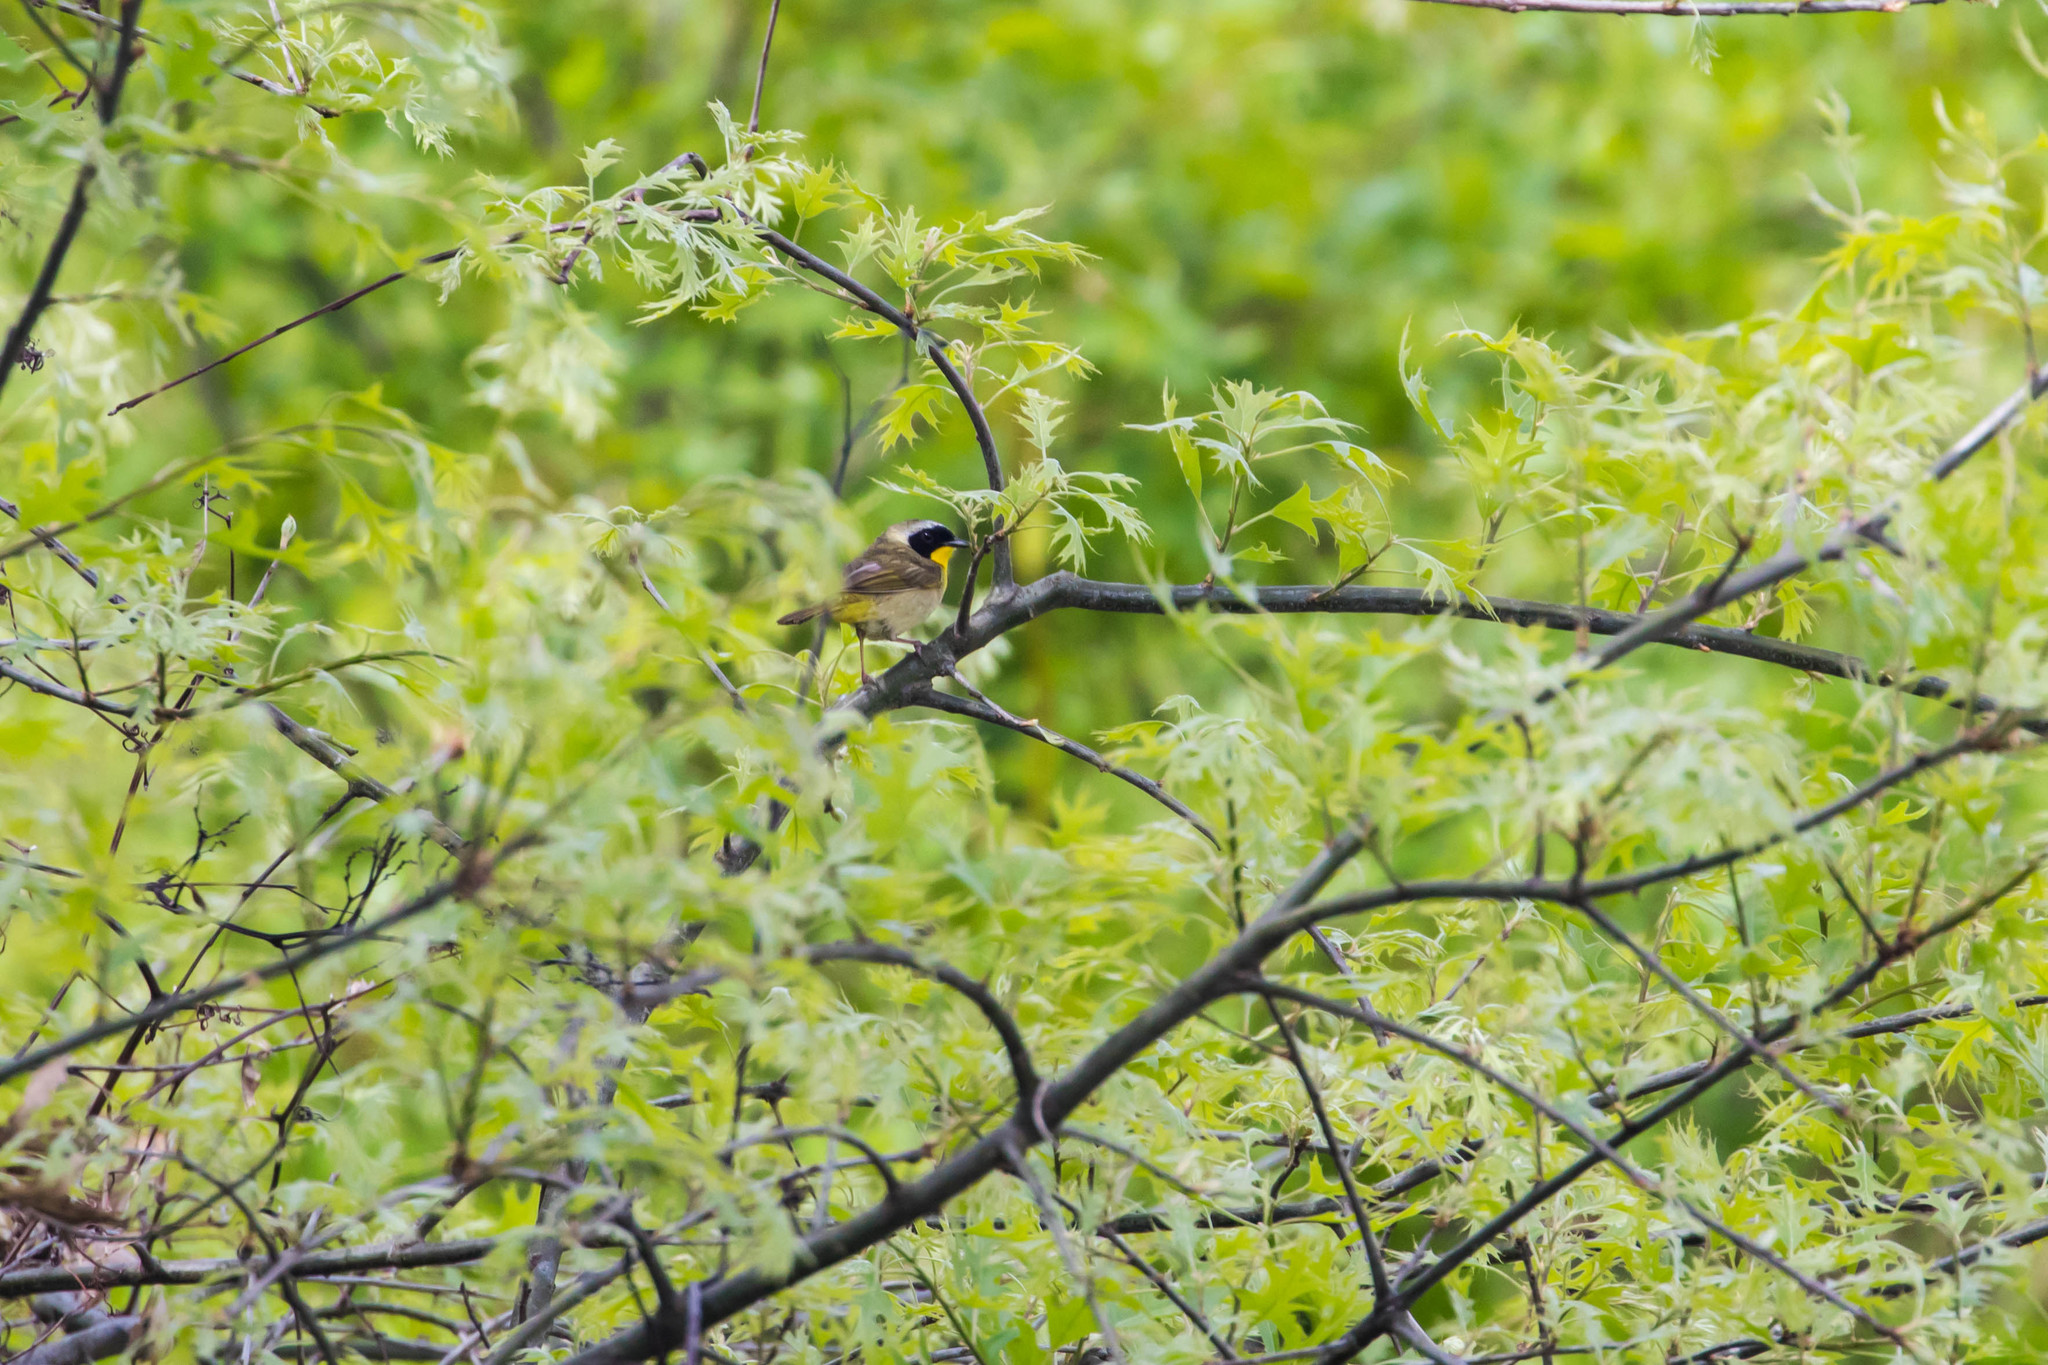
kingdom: Animalia
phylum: Chordata
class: Aves
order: Passeriformes
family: Parulidae
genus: Geothlypis
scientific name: Geothlypis trichas
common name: Common yellowthroat
